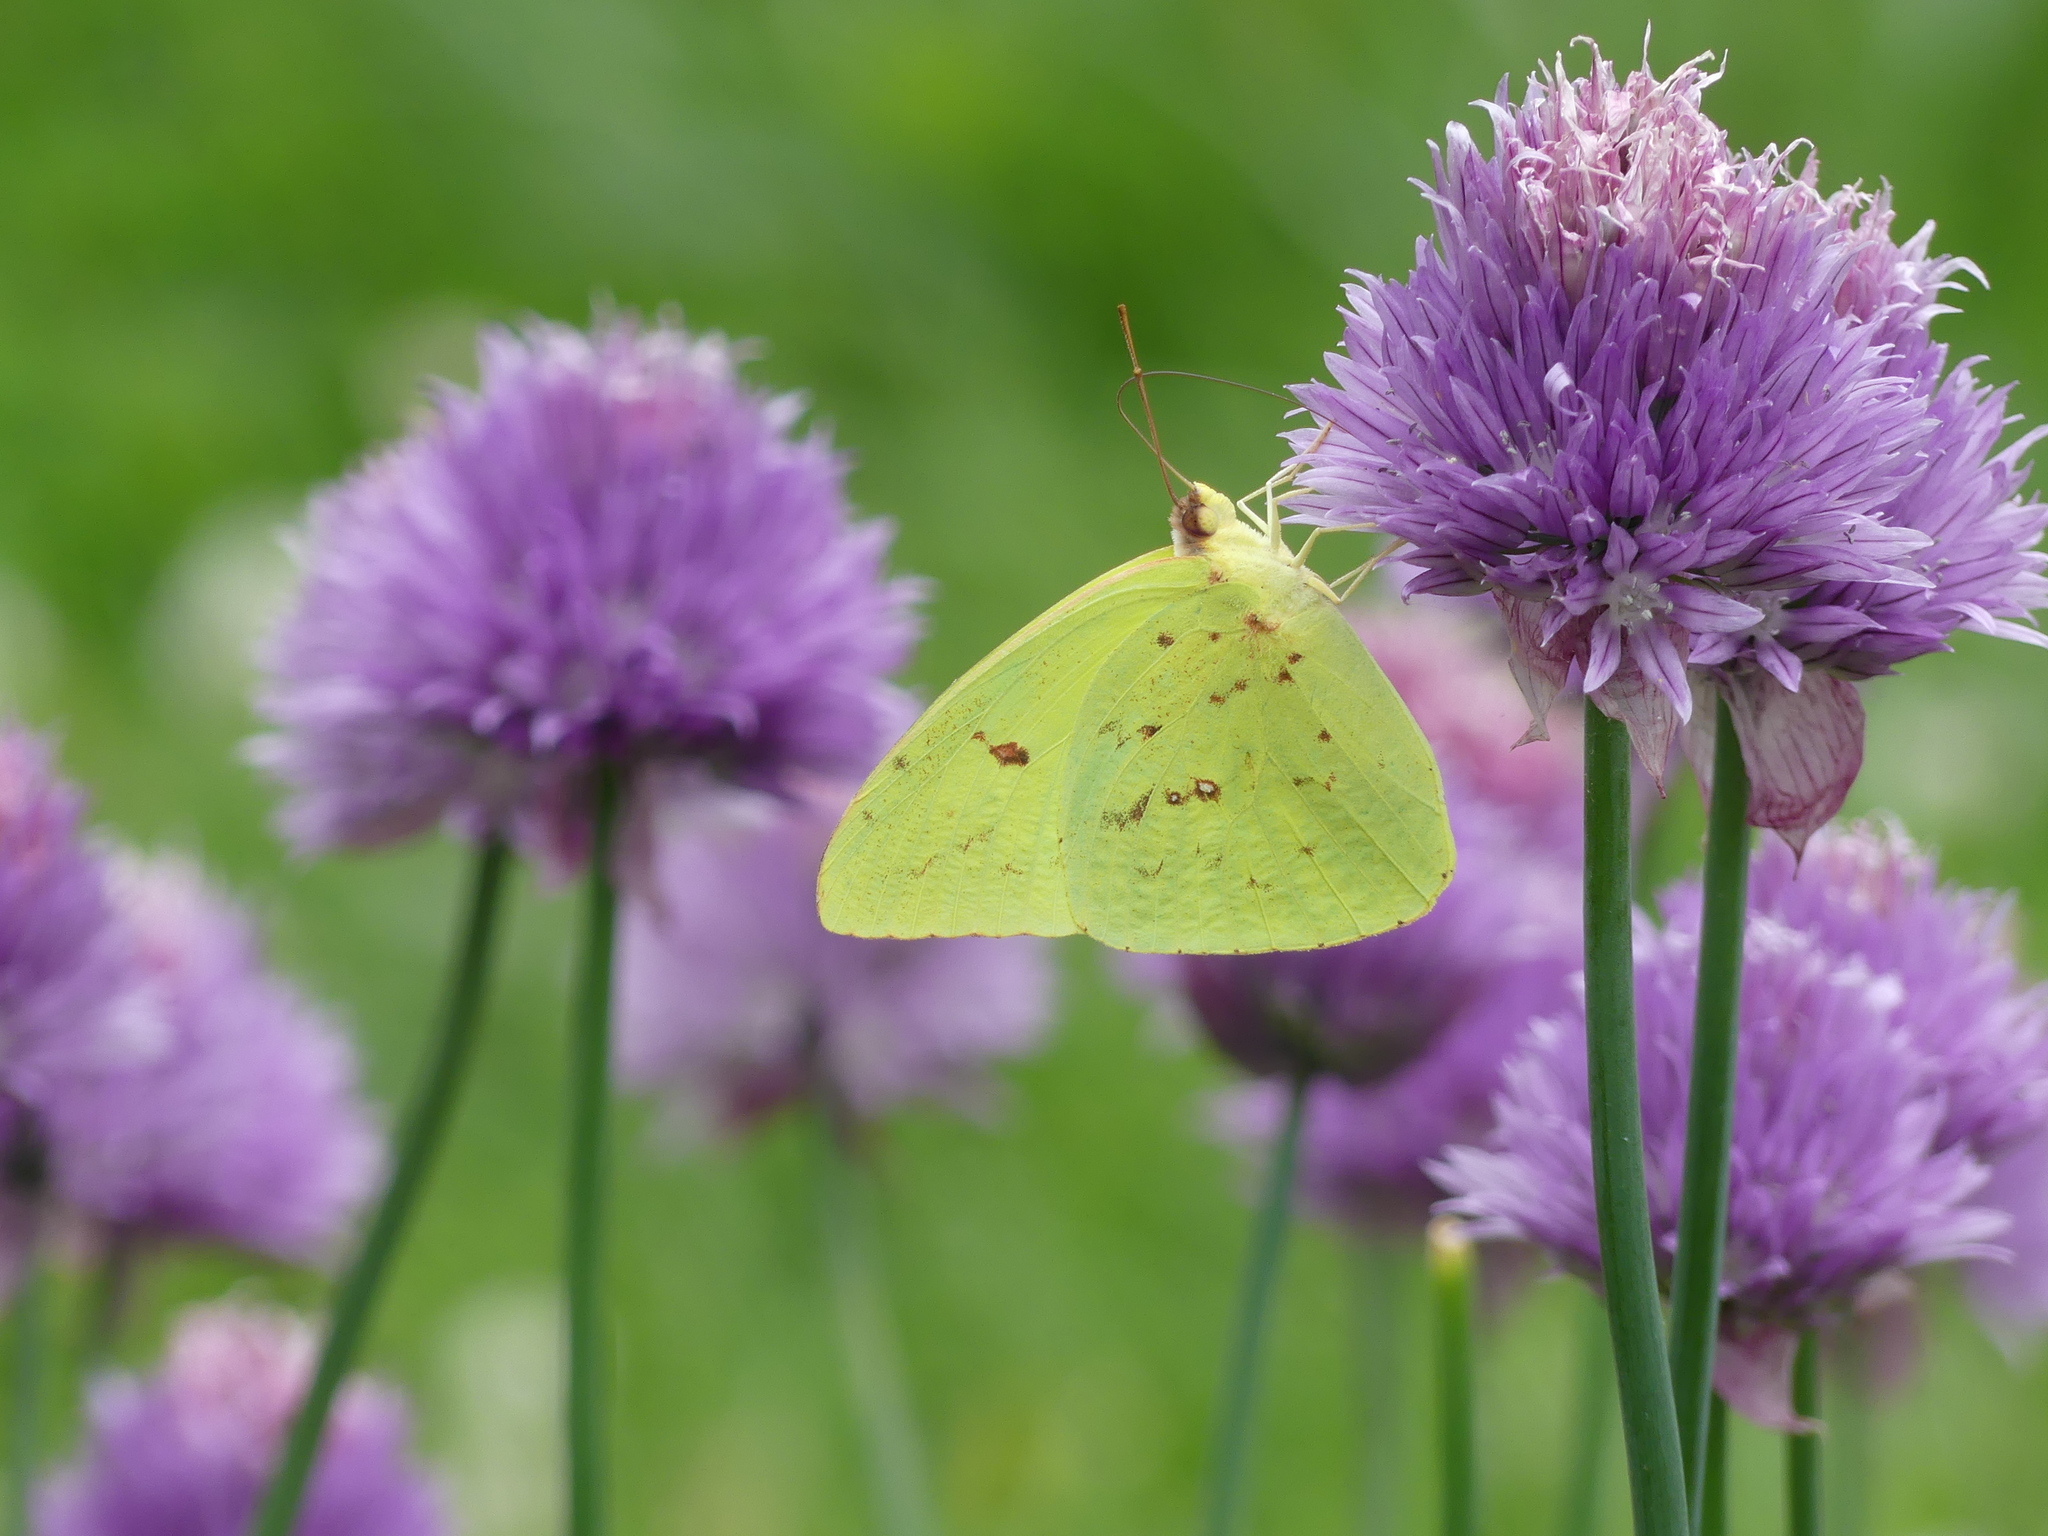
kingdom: Animalia
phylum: Arthropoda
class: Insecta
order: Lepidoptera
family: Pieridae
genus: Phoebis
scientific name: Phoebis sennae
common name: Cloudless sulphur
